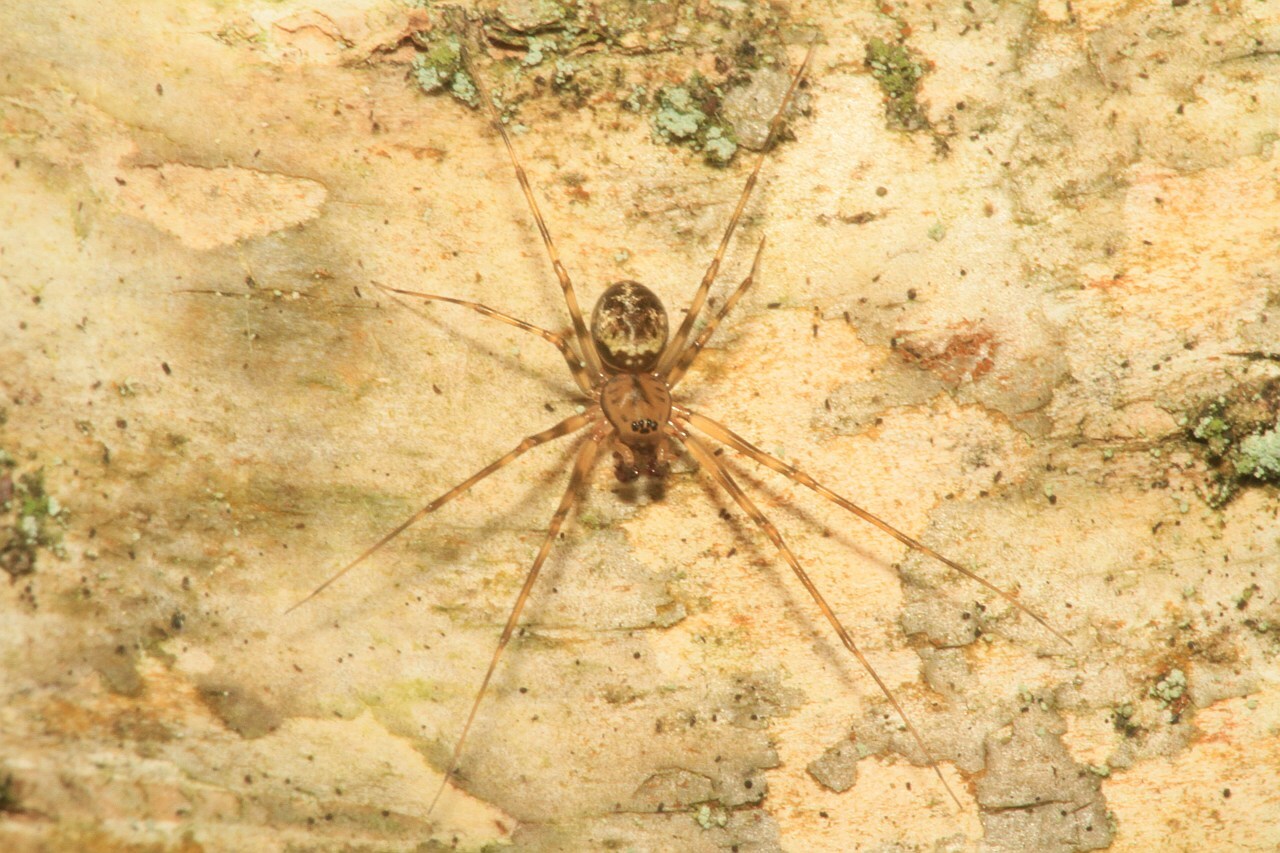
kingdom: Animalia
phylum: Arthropoda
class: Arachnida
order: Araneae
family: Linyphiidae
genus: Drapetisca
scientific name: Drapetisca socialis
